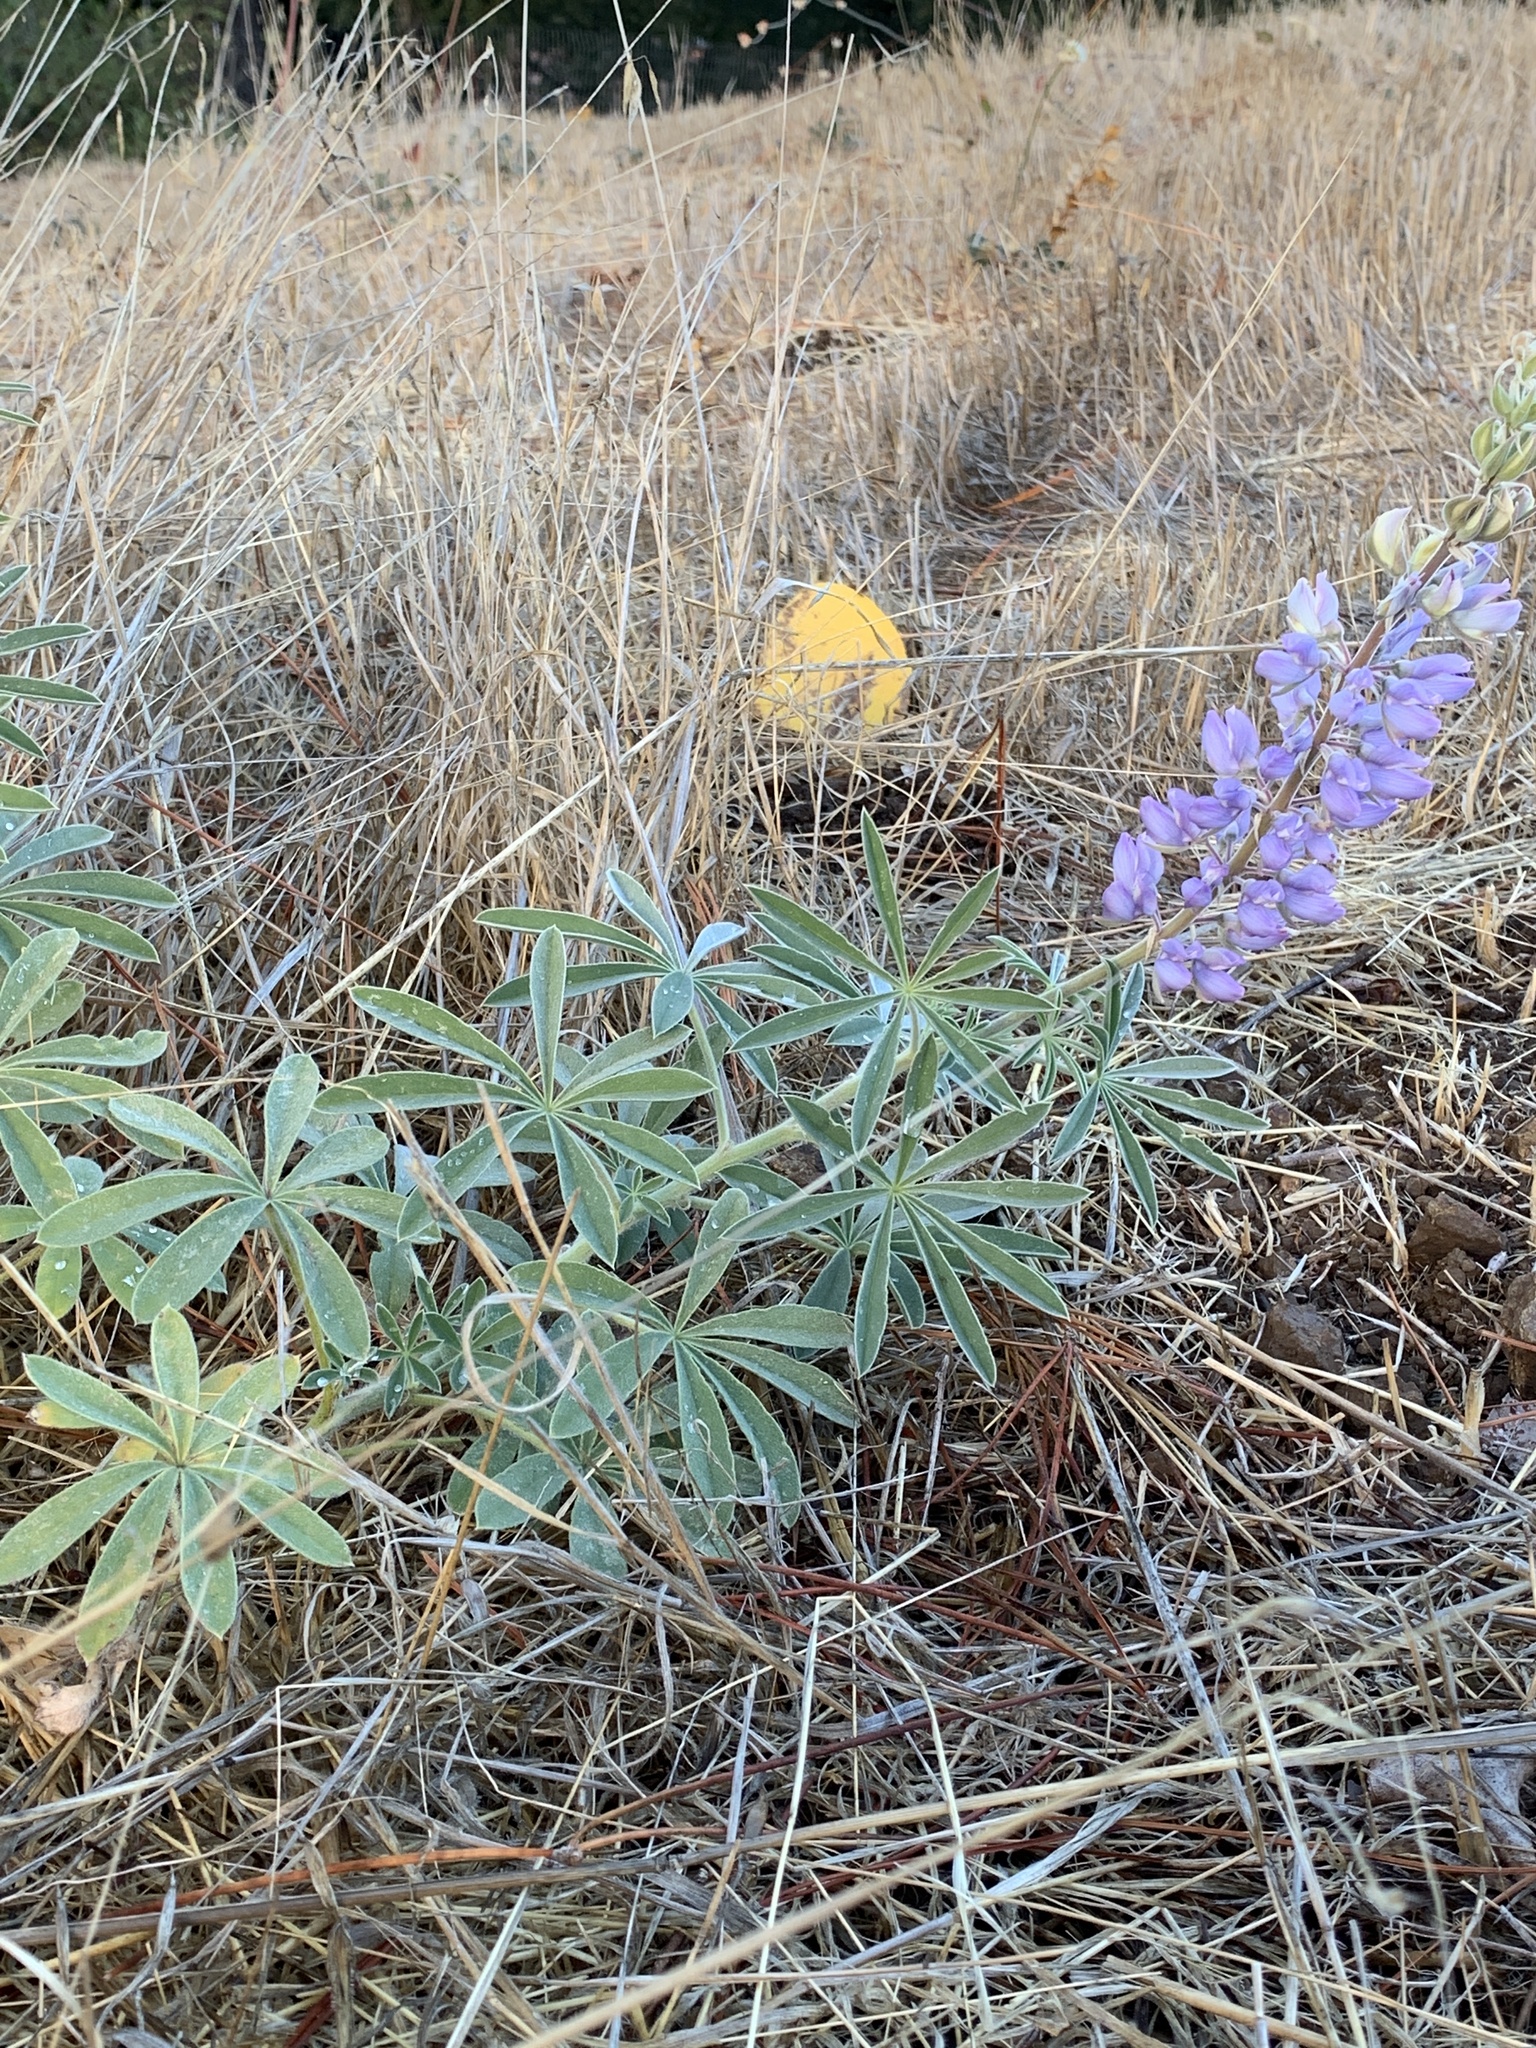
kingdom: Plantae
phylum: Tracheophyta
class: Magnoliopsida
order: Fabales
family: Fabaceae
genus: Lupinus
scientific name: Lupinus formosus
